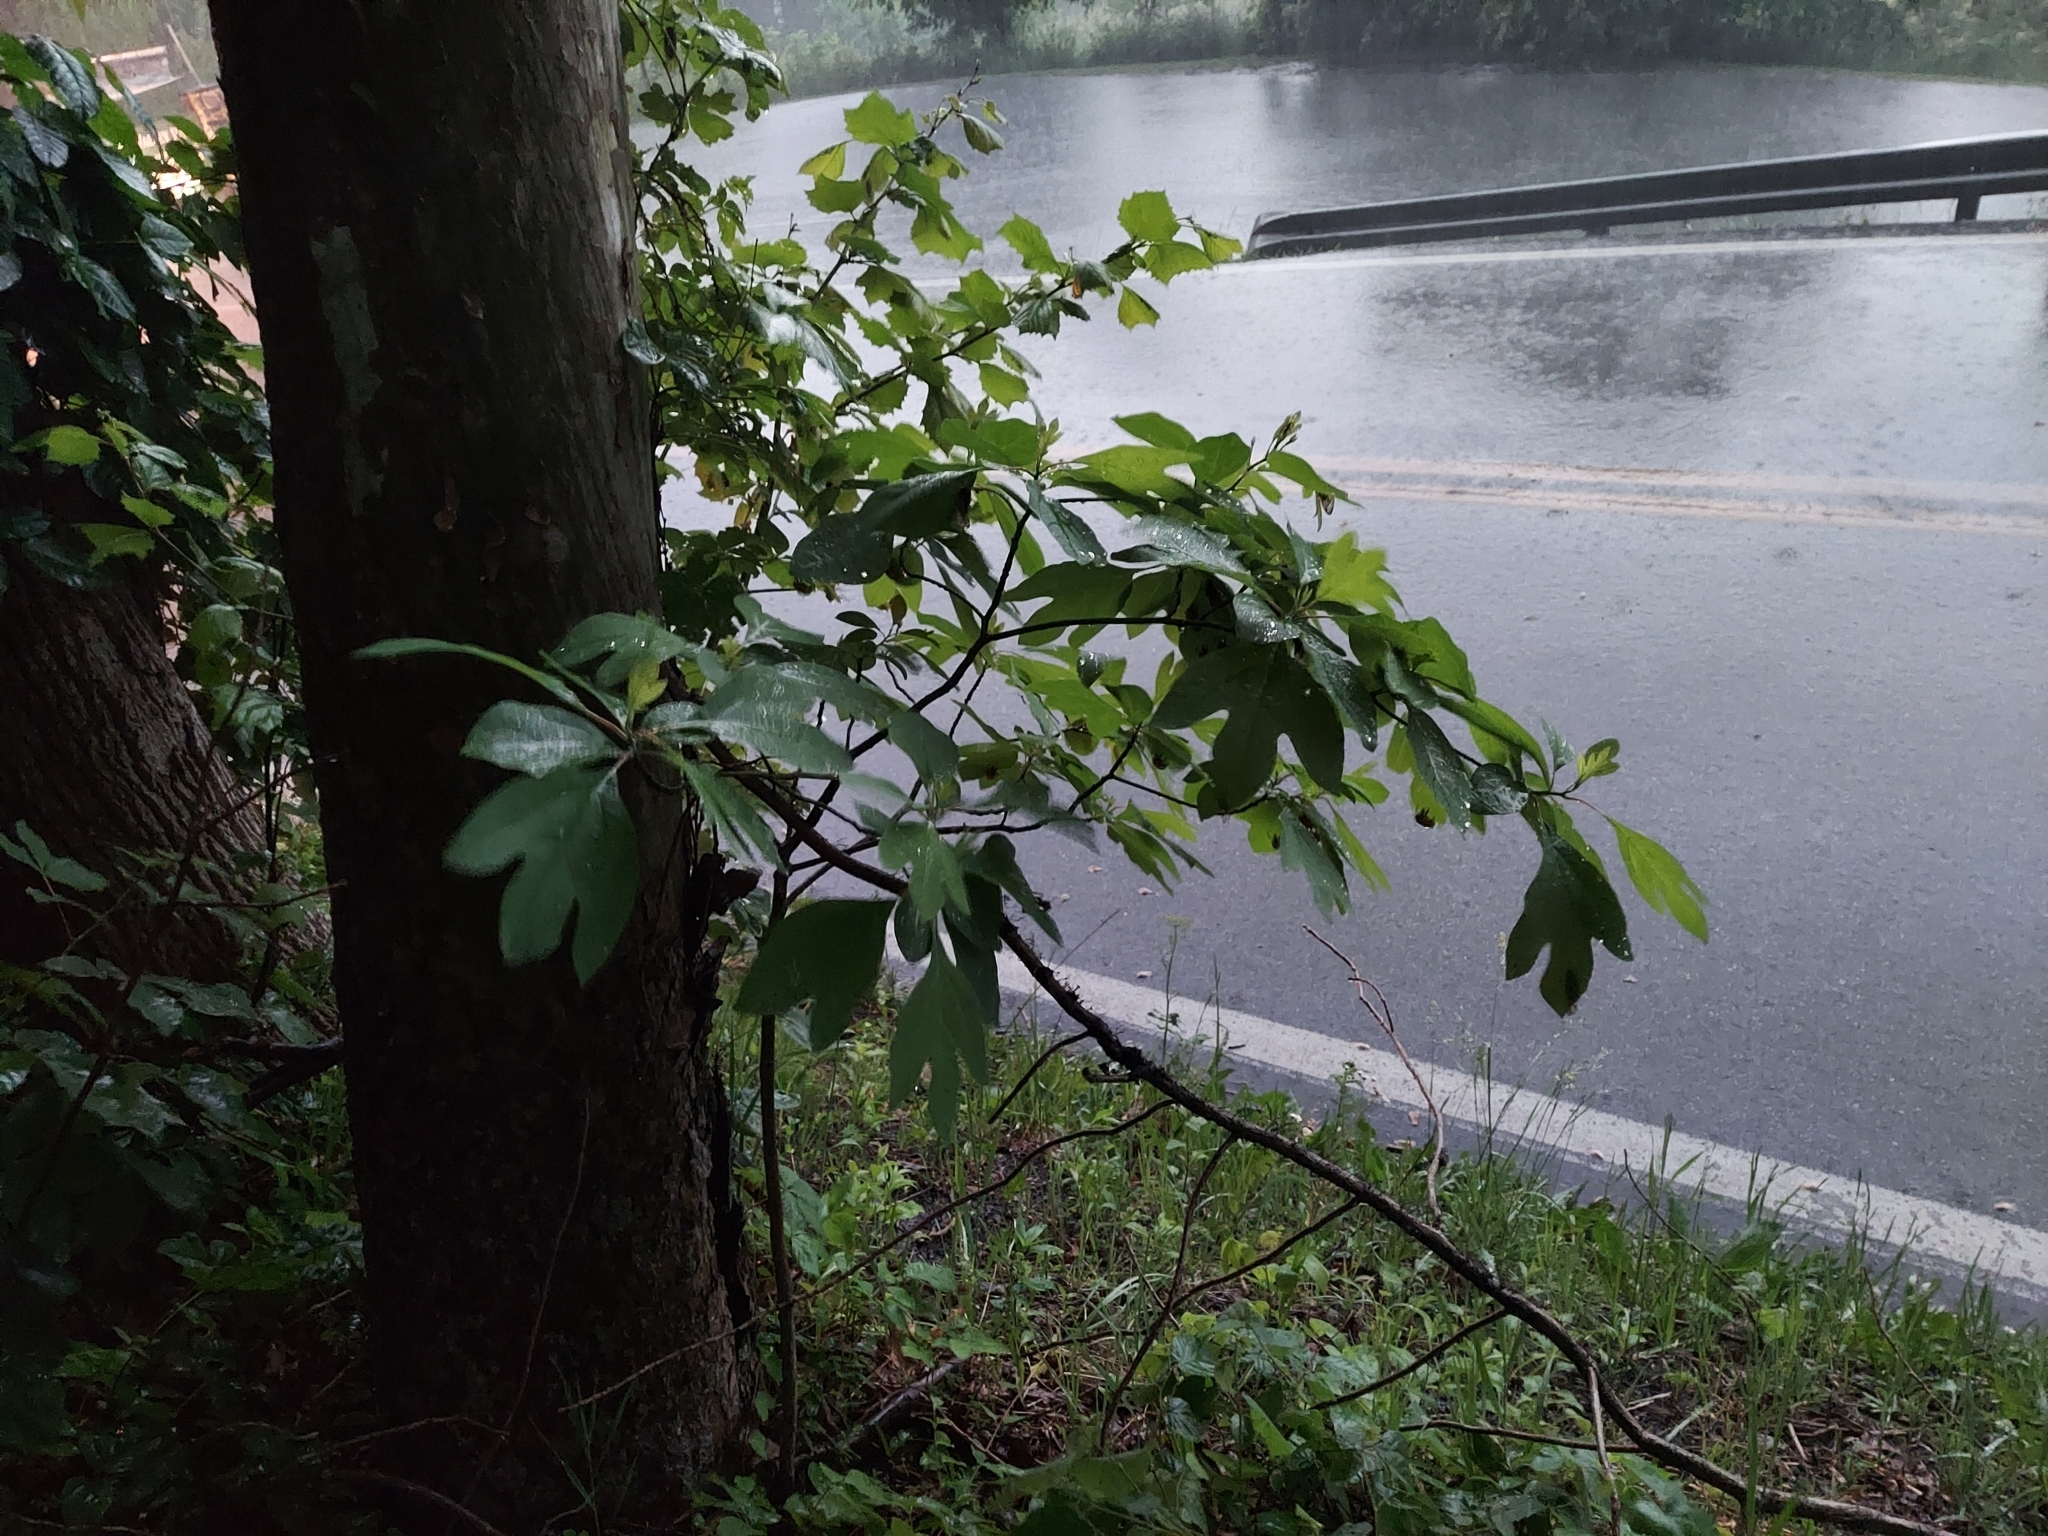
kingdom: Plantae
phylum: Tracheophyta
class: Magnoliopsida
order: Laurales
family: Lauraceae
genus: Sassafras
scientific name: Sassafras albidum
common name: Sassafras
